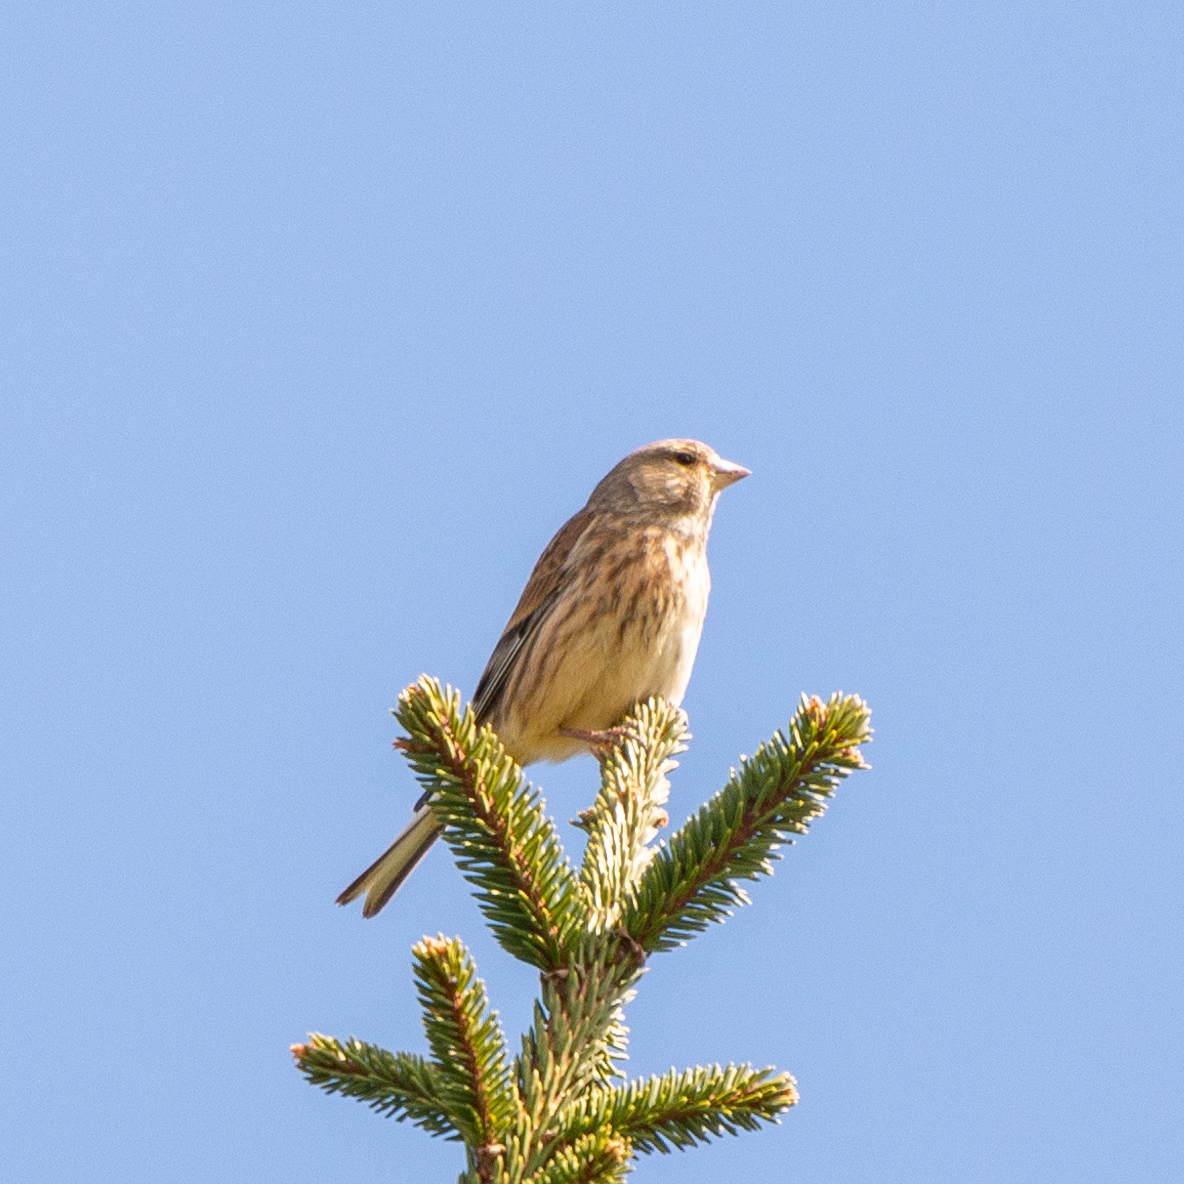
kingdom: Animalia
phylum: Chordata
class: Aves
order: Passeriformes
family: Fringillidae
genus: Linaria
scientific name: Linaria cannabina
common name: Common linnet
